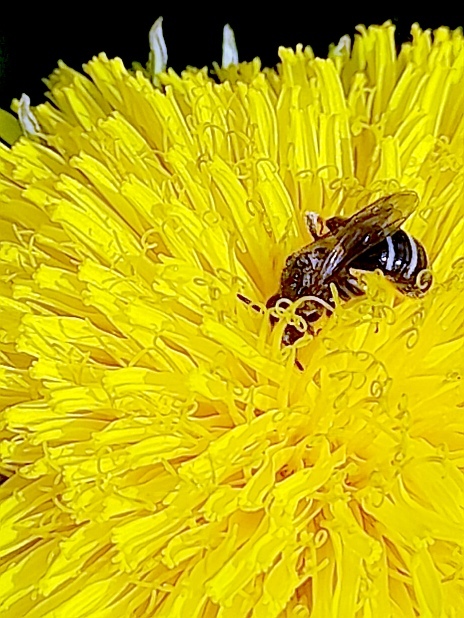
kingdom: Animalia
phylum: Arthropoda
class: Insecta
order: Hymenoptera
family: Halictidae
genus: Lasioglossum
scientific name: Lasioglossum
